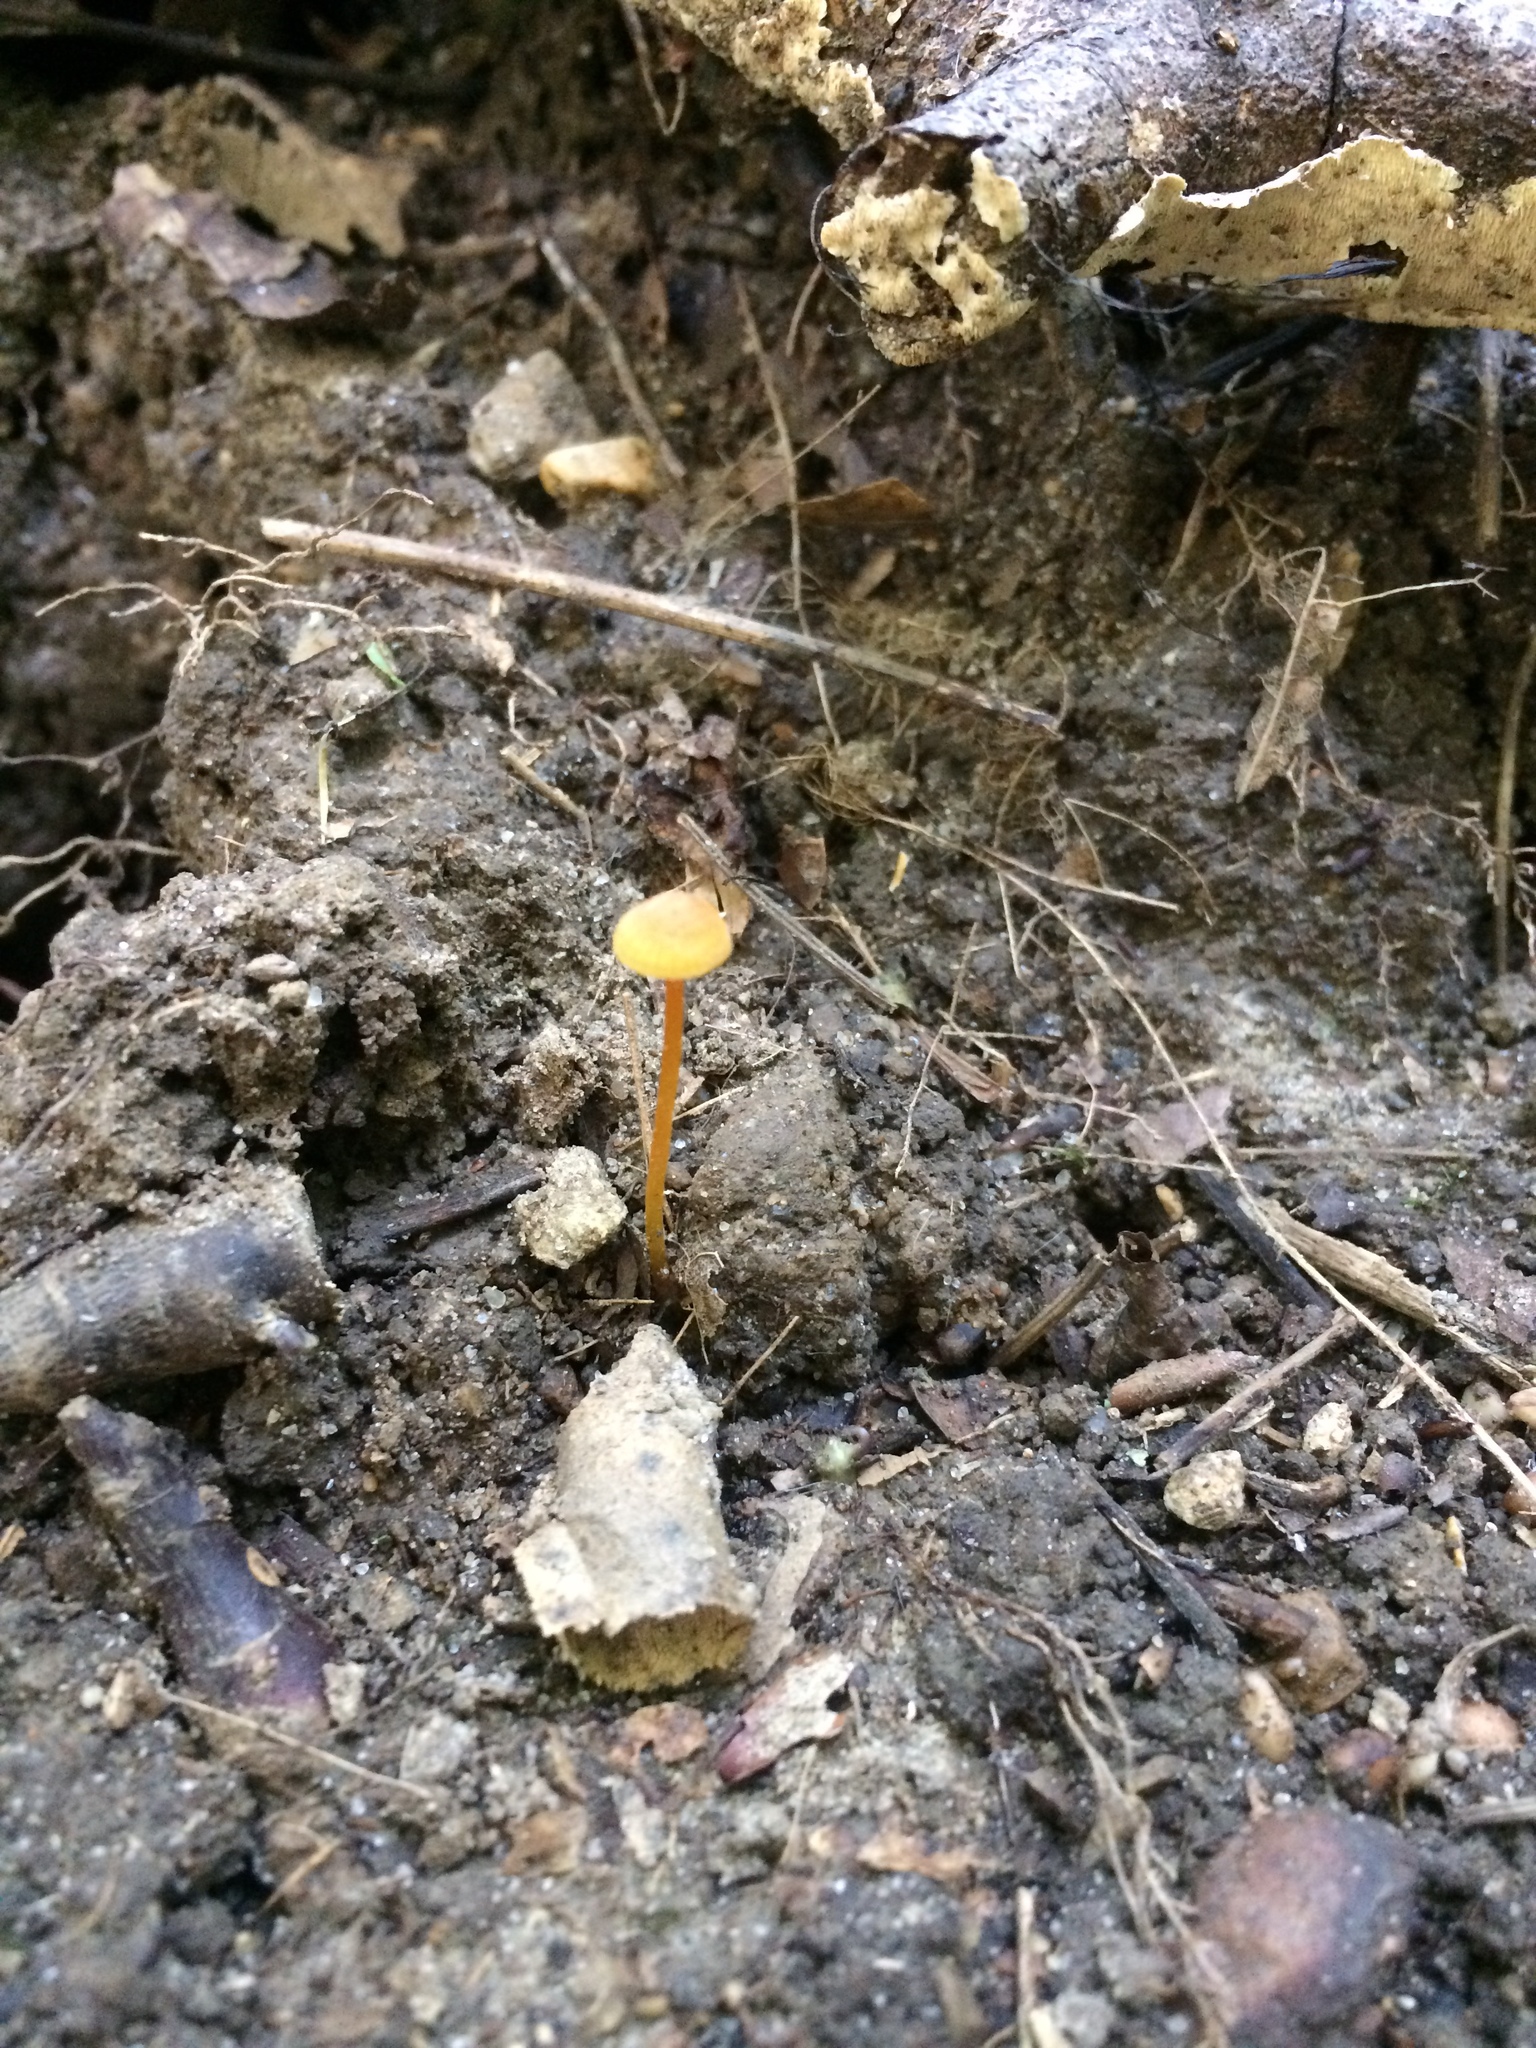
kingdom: Fungi
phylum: Basidiomycota
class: Agaricomycetes
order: Agaricales
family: Mycenaceae
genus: Mycena
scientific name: Mycena crocea
